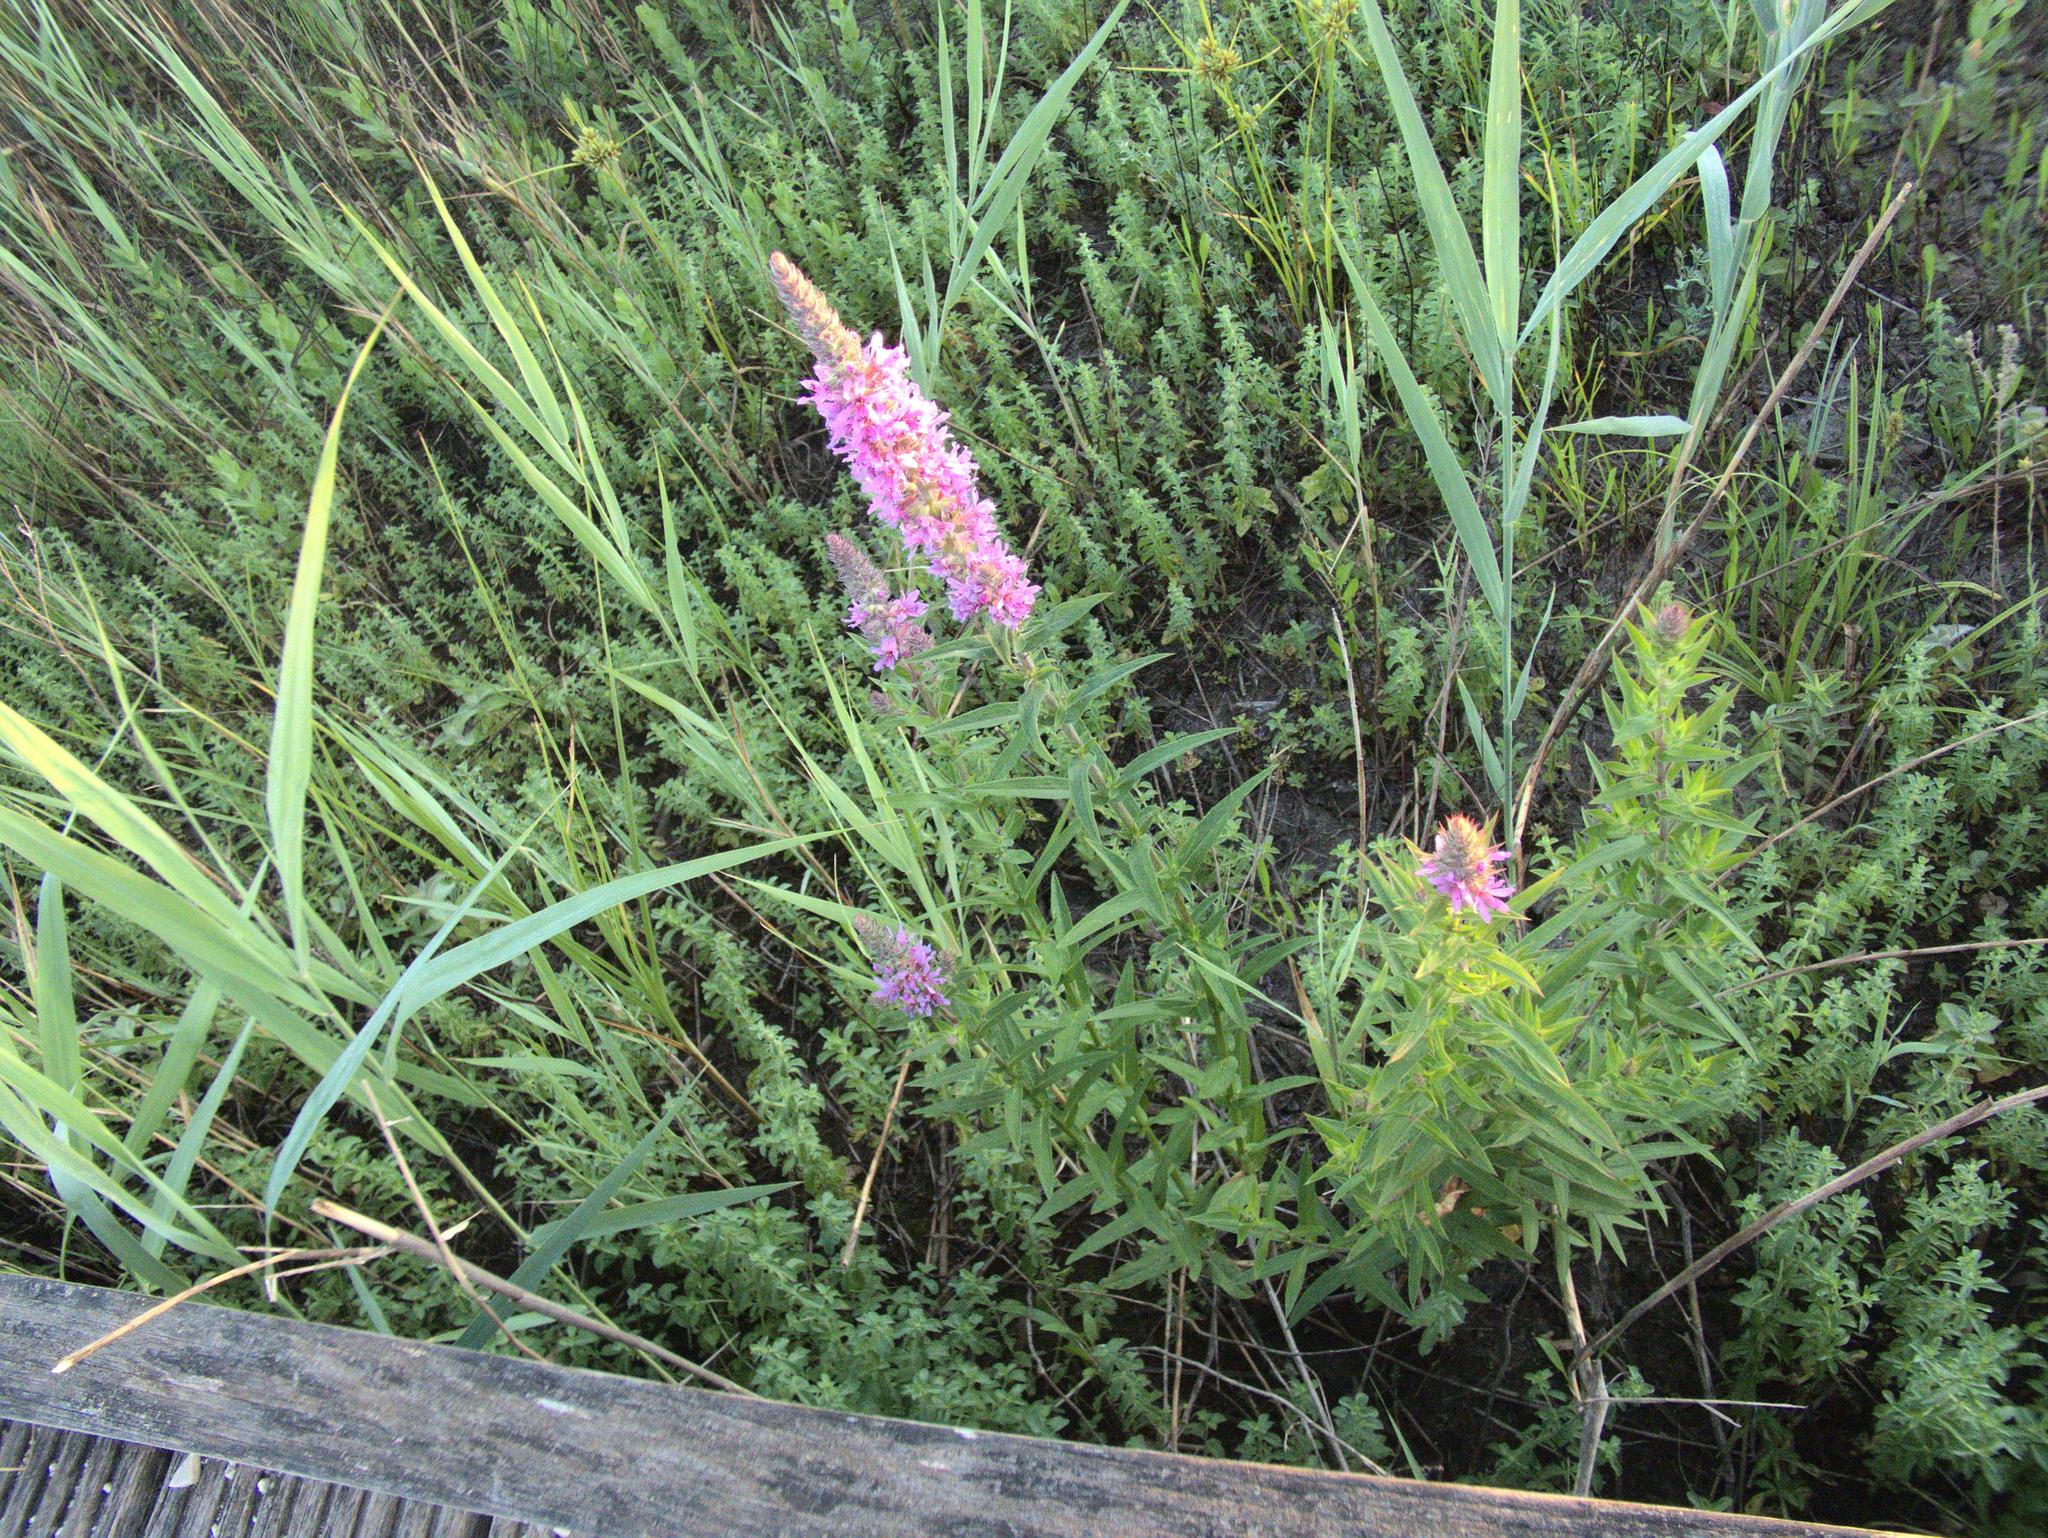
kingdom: Plantae
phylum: Tracheophyta
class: Magnoliopsida
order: Myrtales
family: Lythraceae
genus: Lythrum
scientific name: Lythrum salicaria
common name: Purple loosestrife
